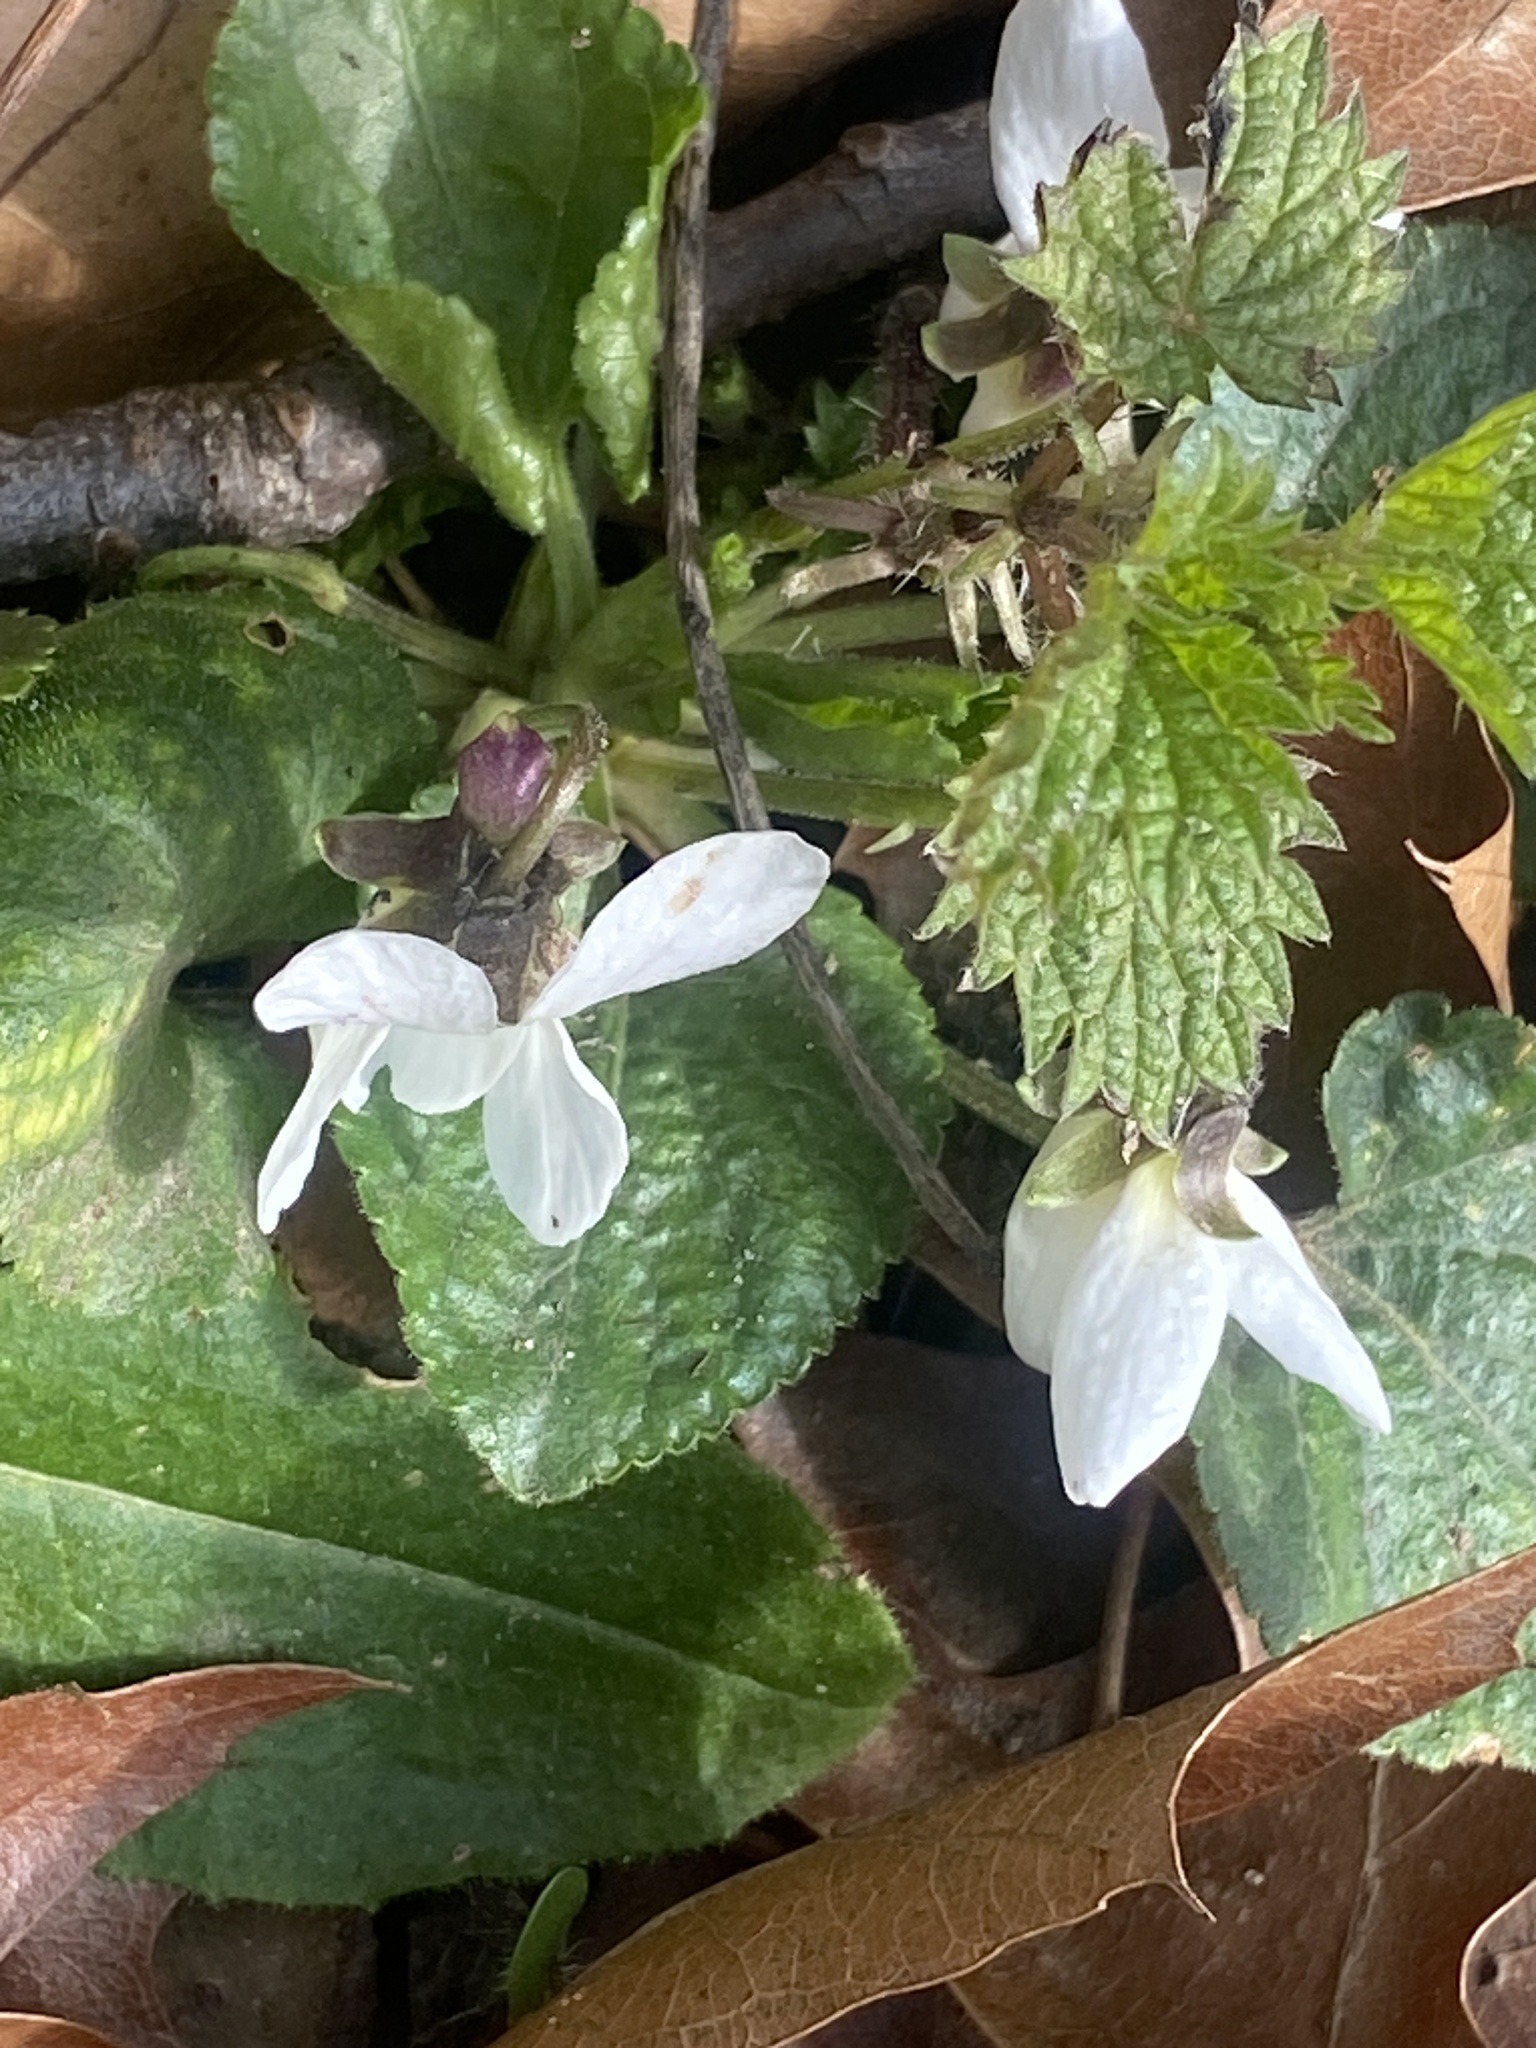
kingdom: Plantae
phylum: Tracheophyta
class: Magnoliopsida
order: Malpighiales
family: Violaceae
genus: Viola
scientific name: Viola odorata
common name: Sweet violet
